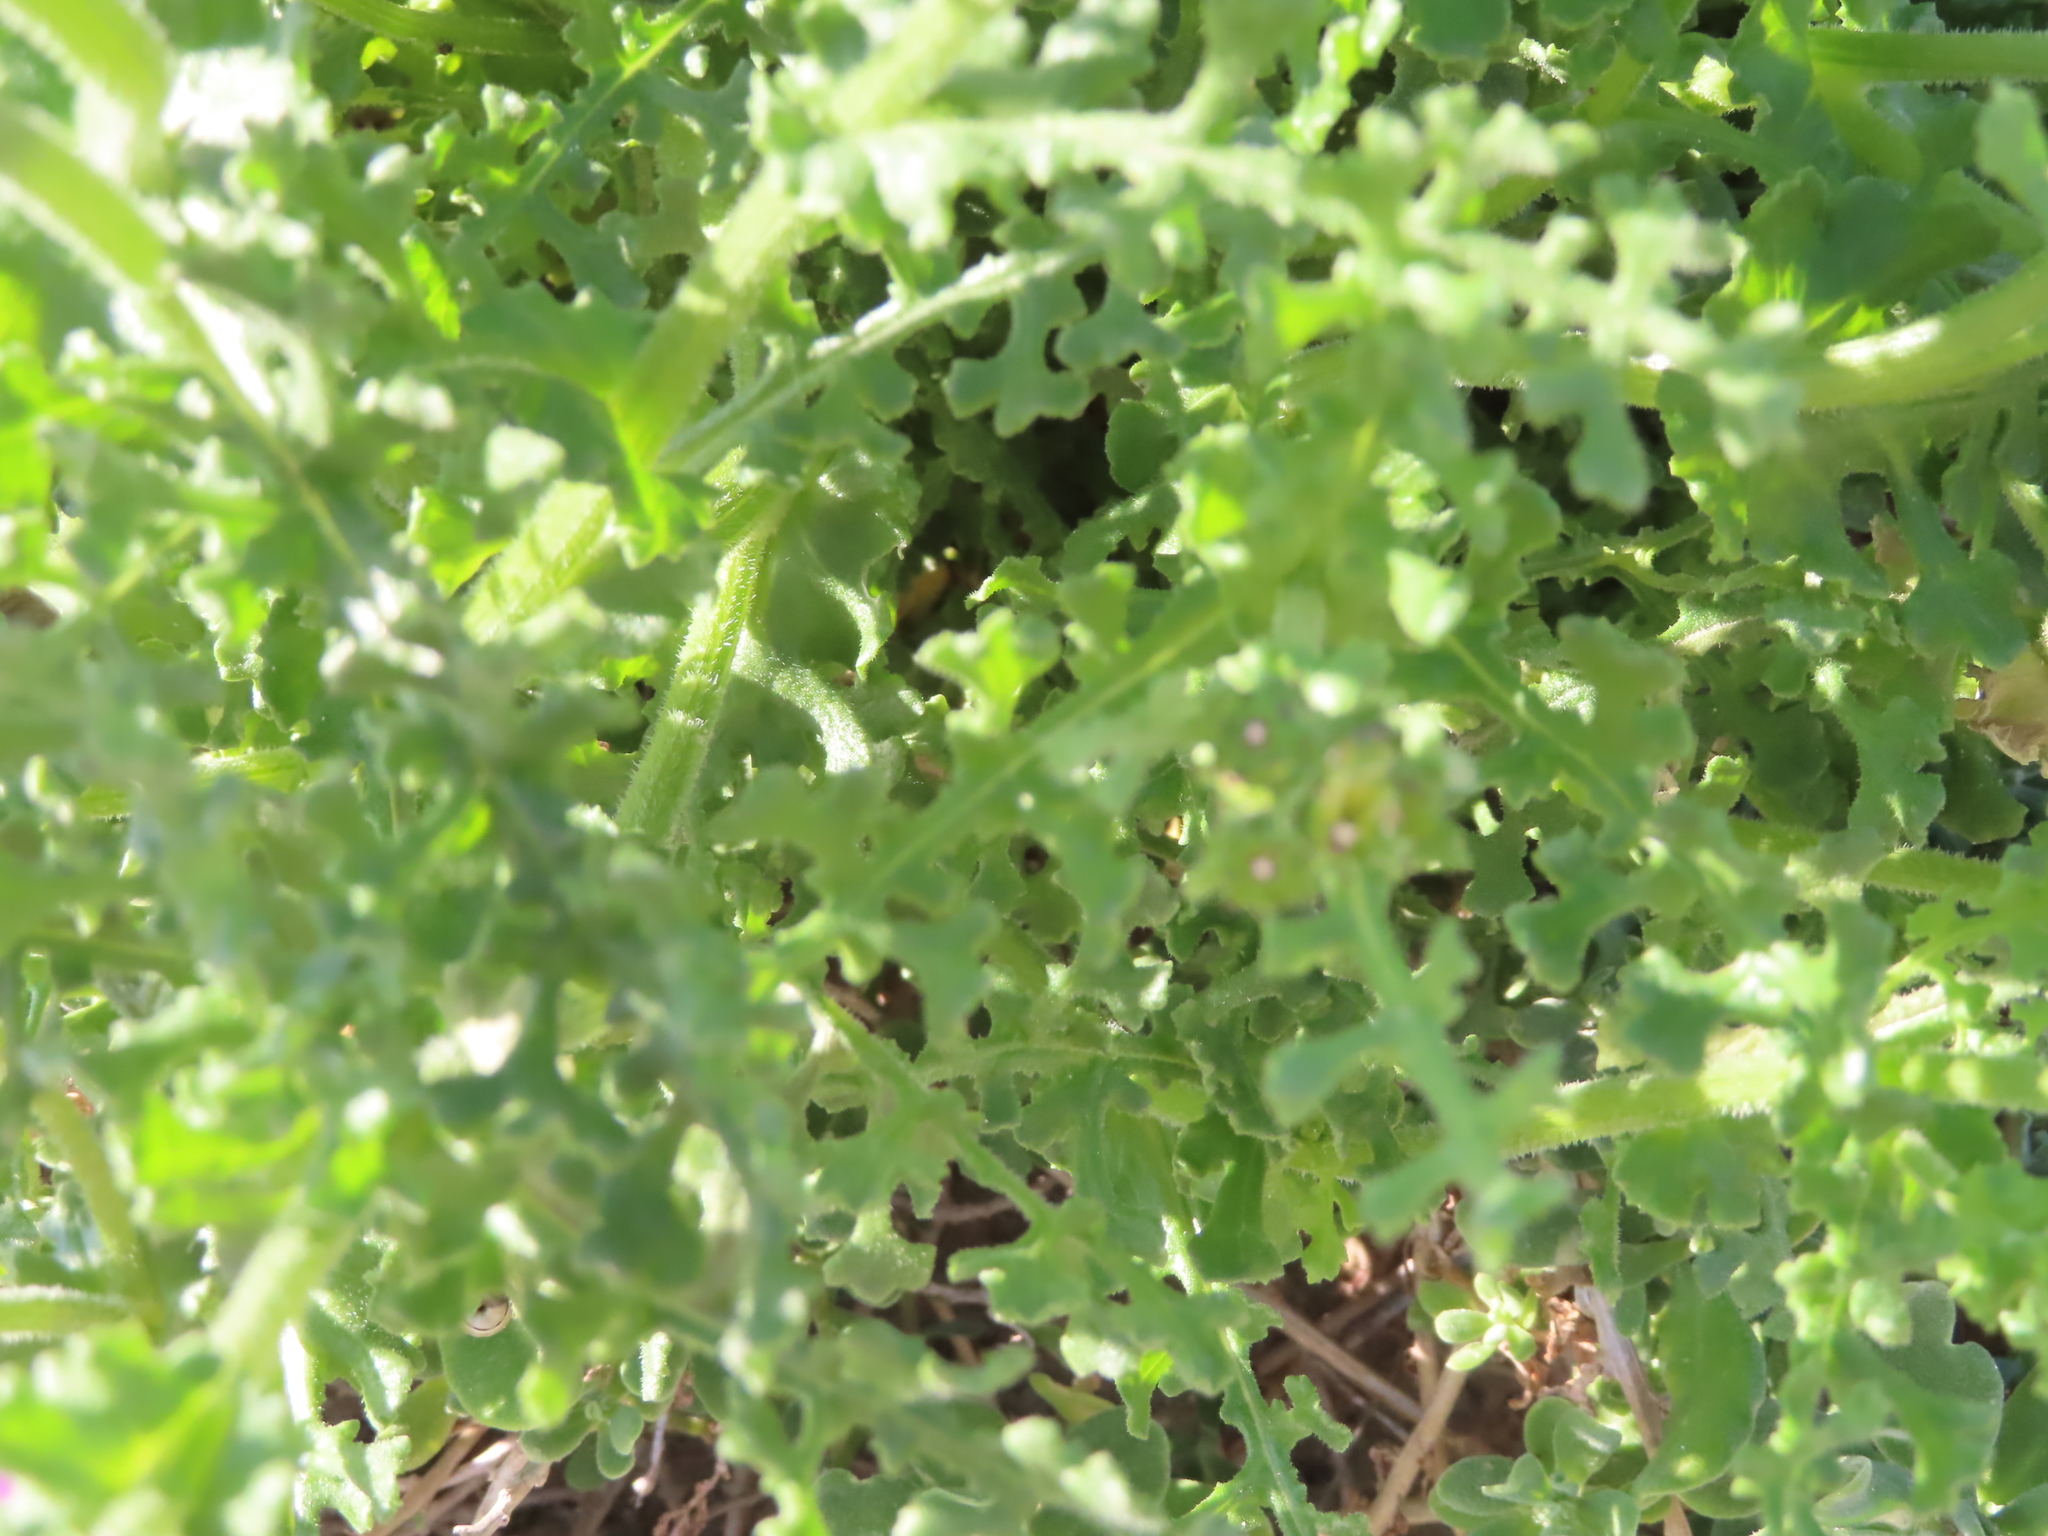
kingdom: Plantae
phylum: Tracheophyta
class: Magnoliopsida
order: Asterales
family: Asteraceae
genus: Senecio
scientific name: Senecio elegans
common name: Purple groundsel
